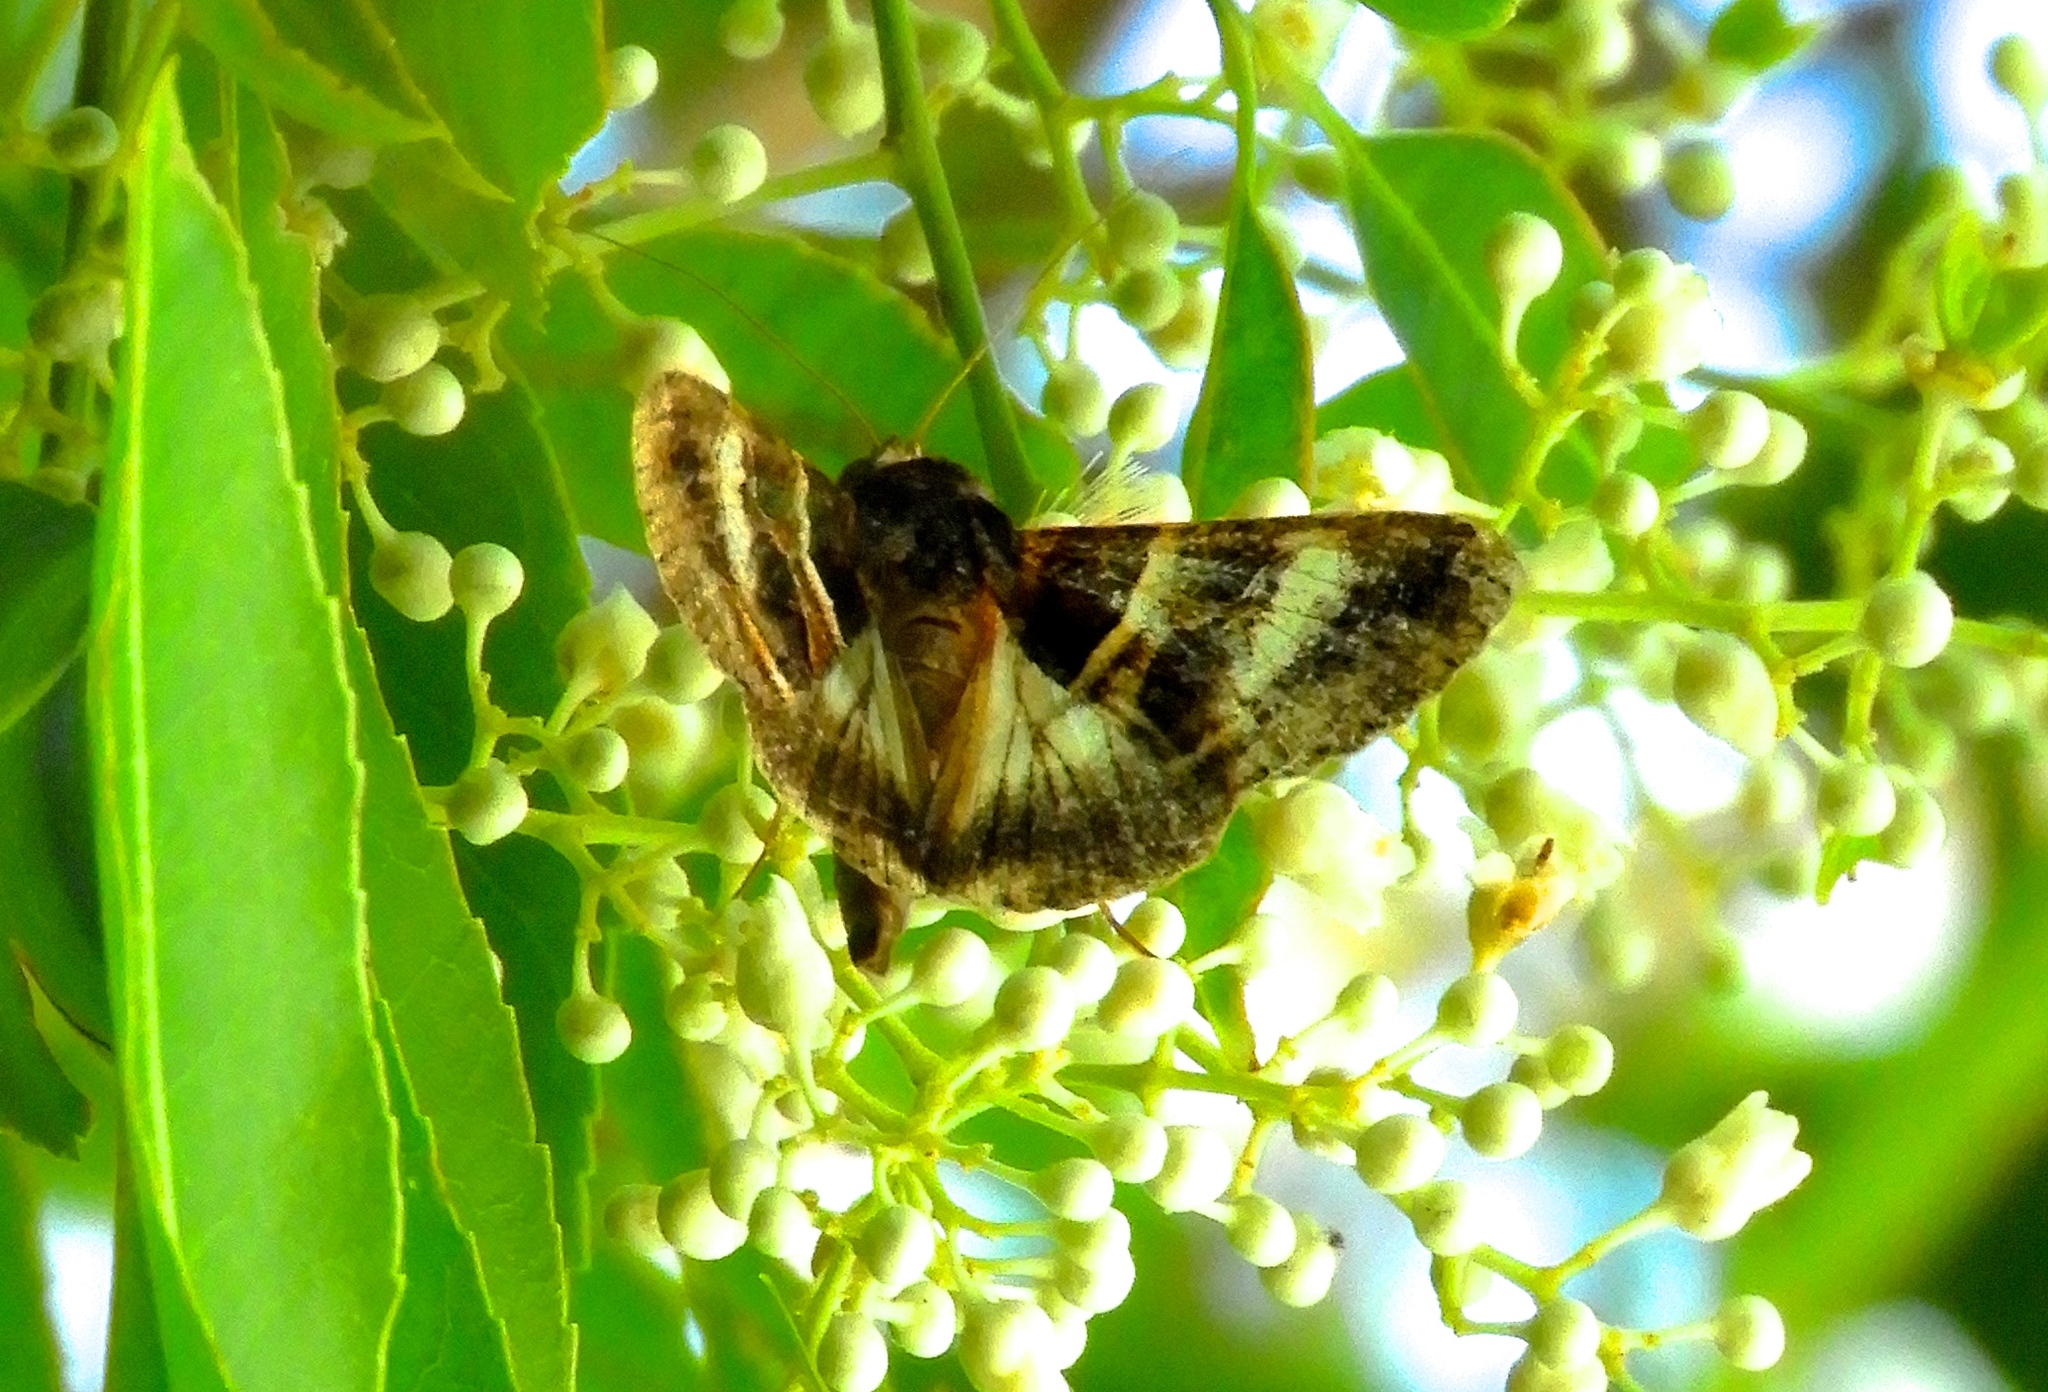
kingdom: Animalia
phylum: Arthropoda
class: Insecta
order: Lepidoptera
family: Erebidae
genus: Melipotis
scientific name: Melipotis
